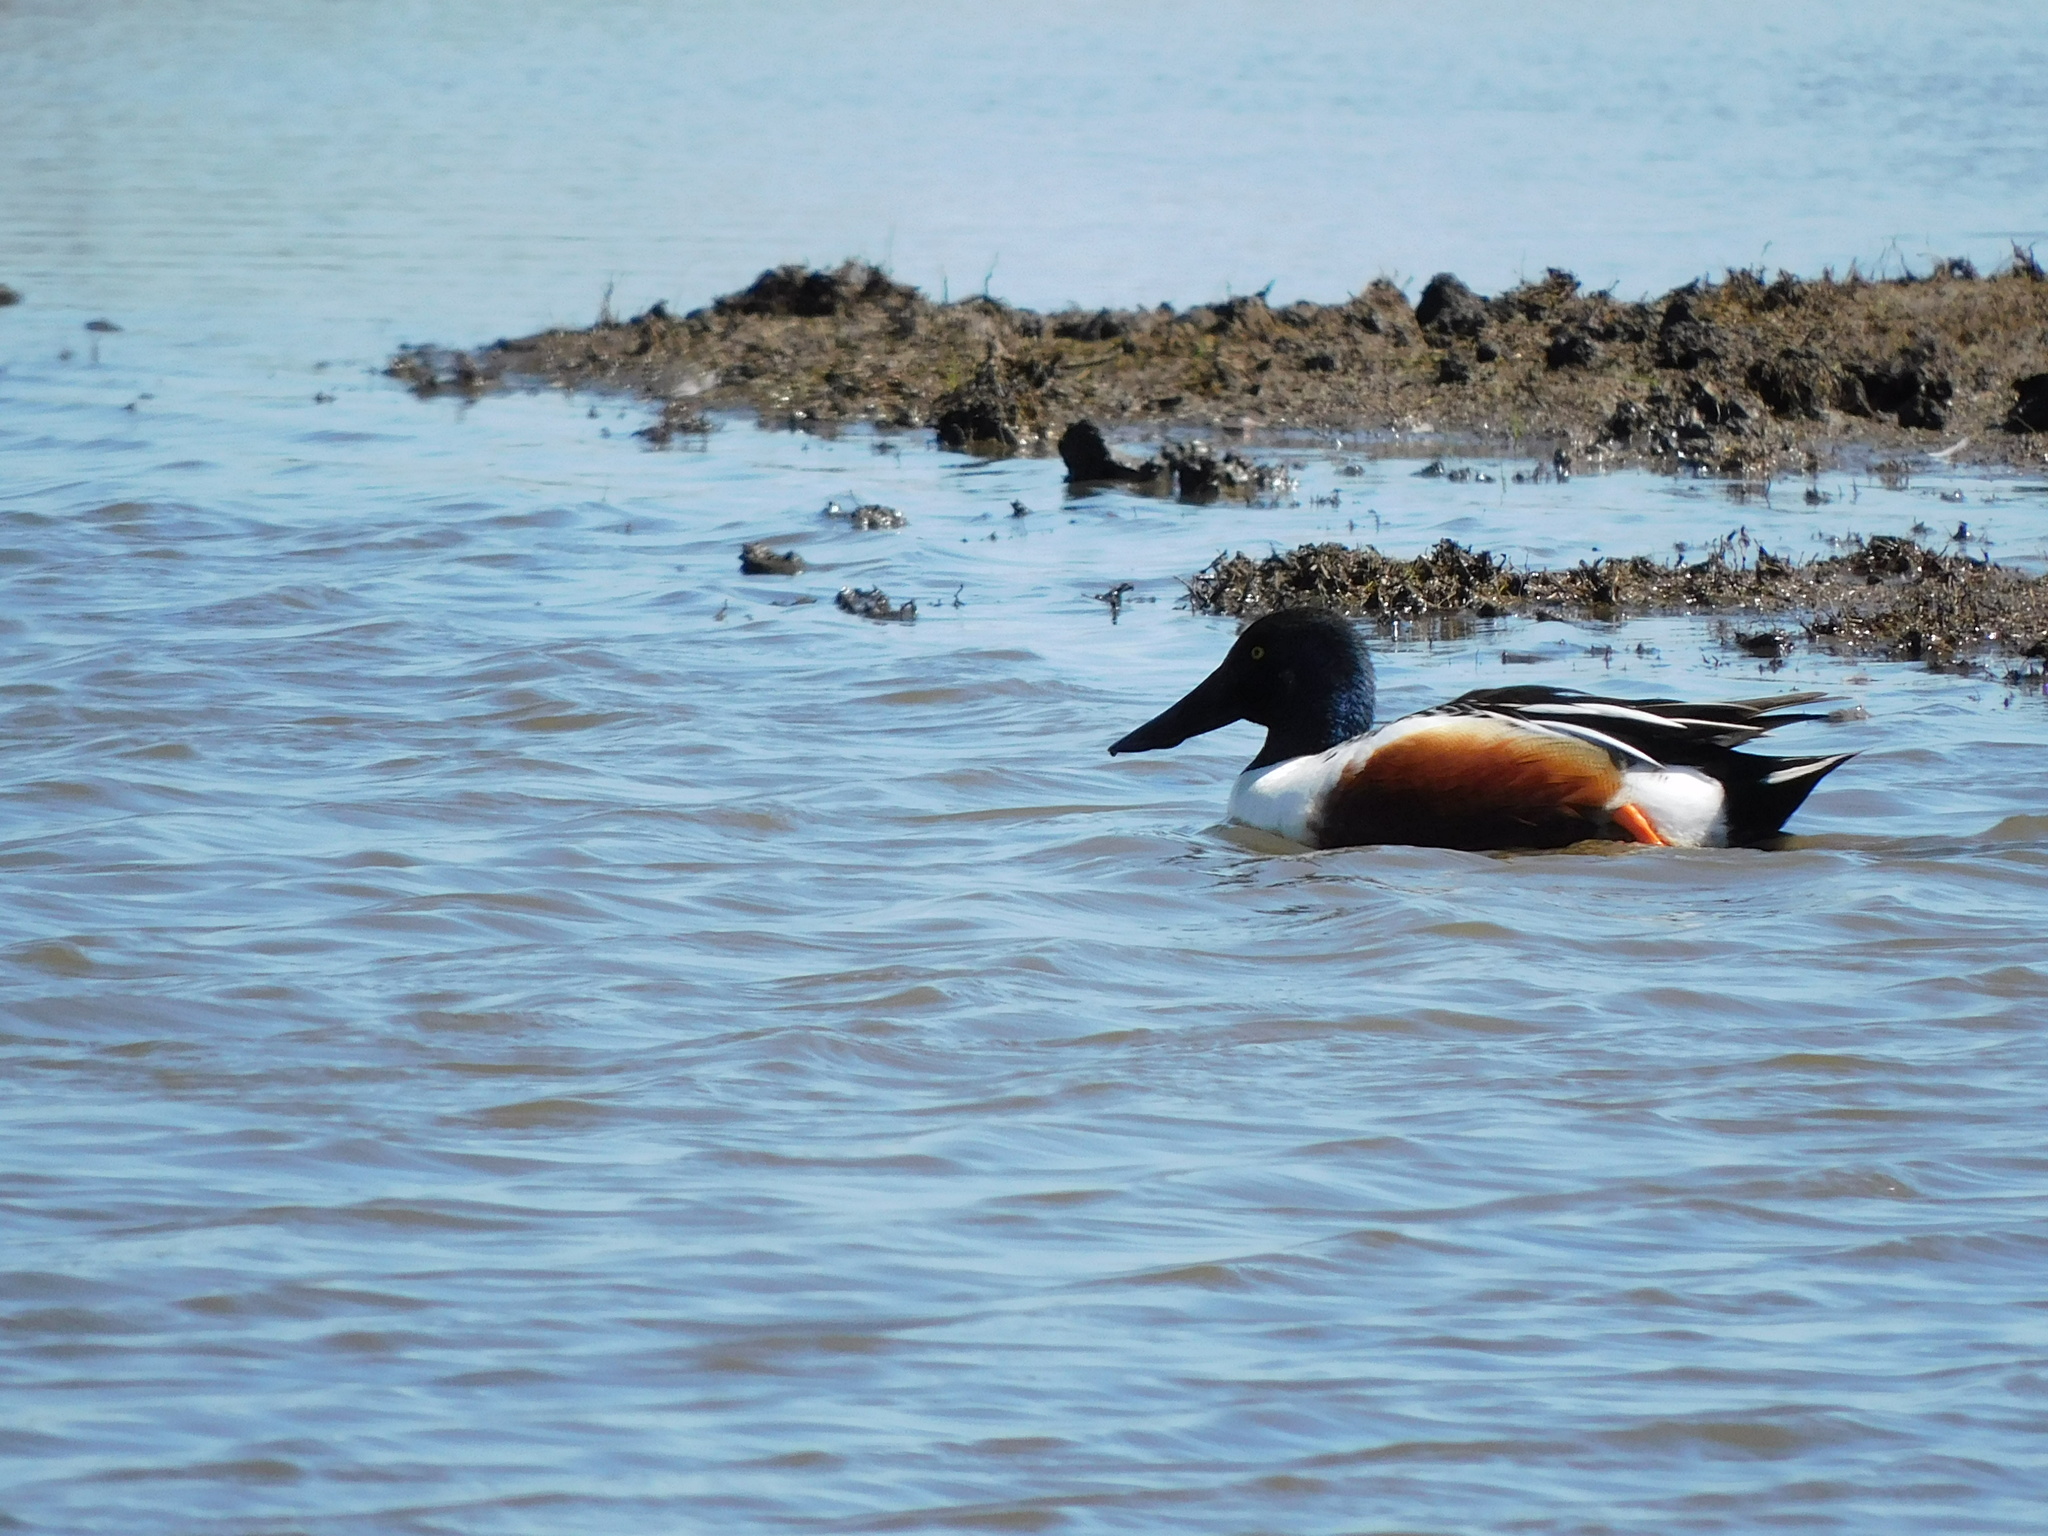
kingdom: Animalia
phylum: Chordata
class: Aves
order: Anseriformes
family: Anatidae
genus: Spatula
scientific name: Spatula clypeata
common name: Northern shoveler
